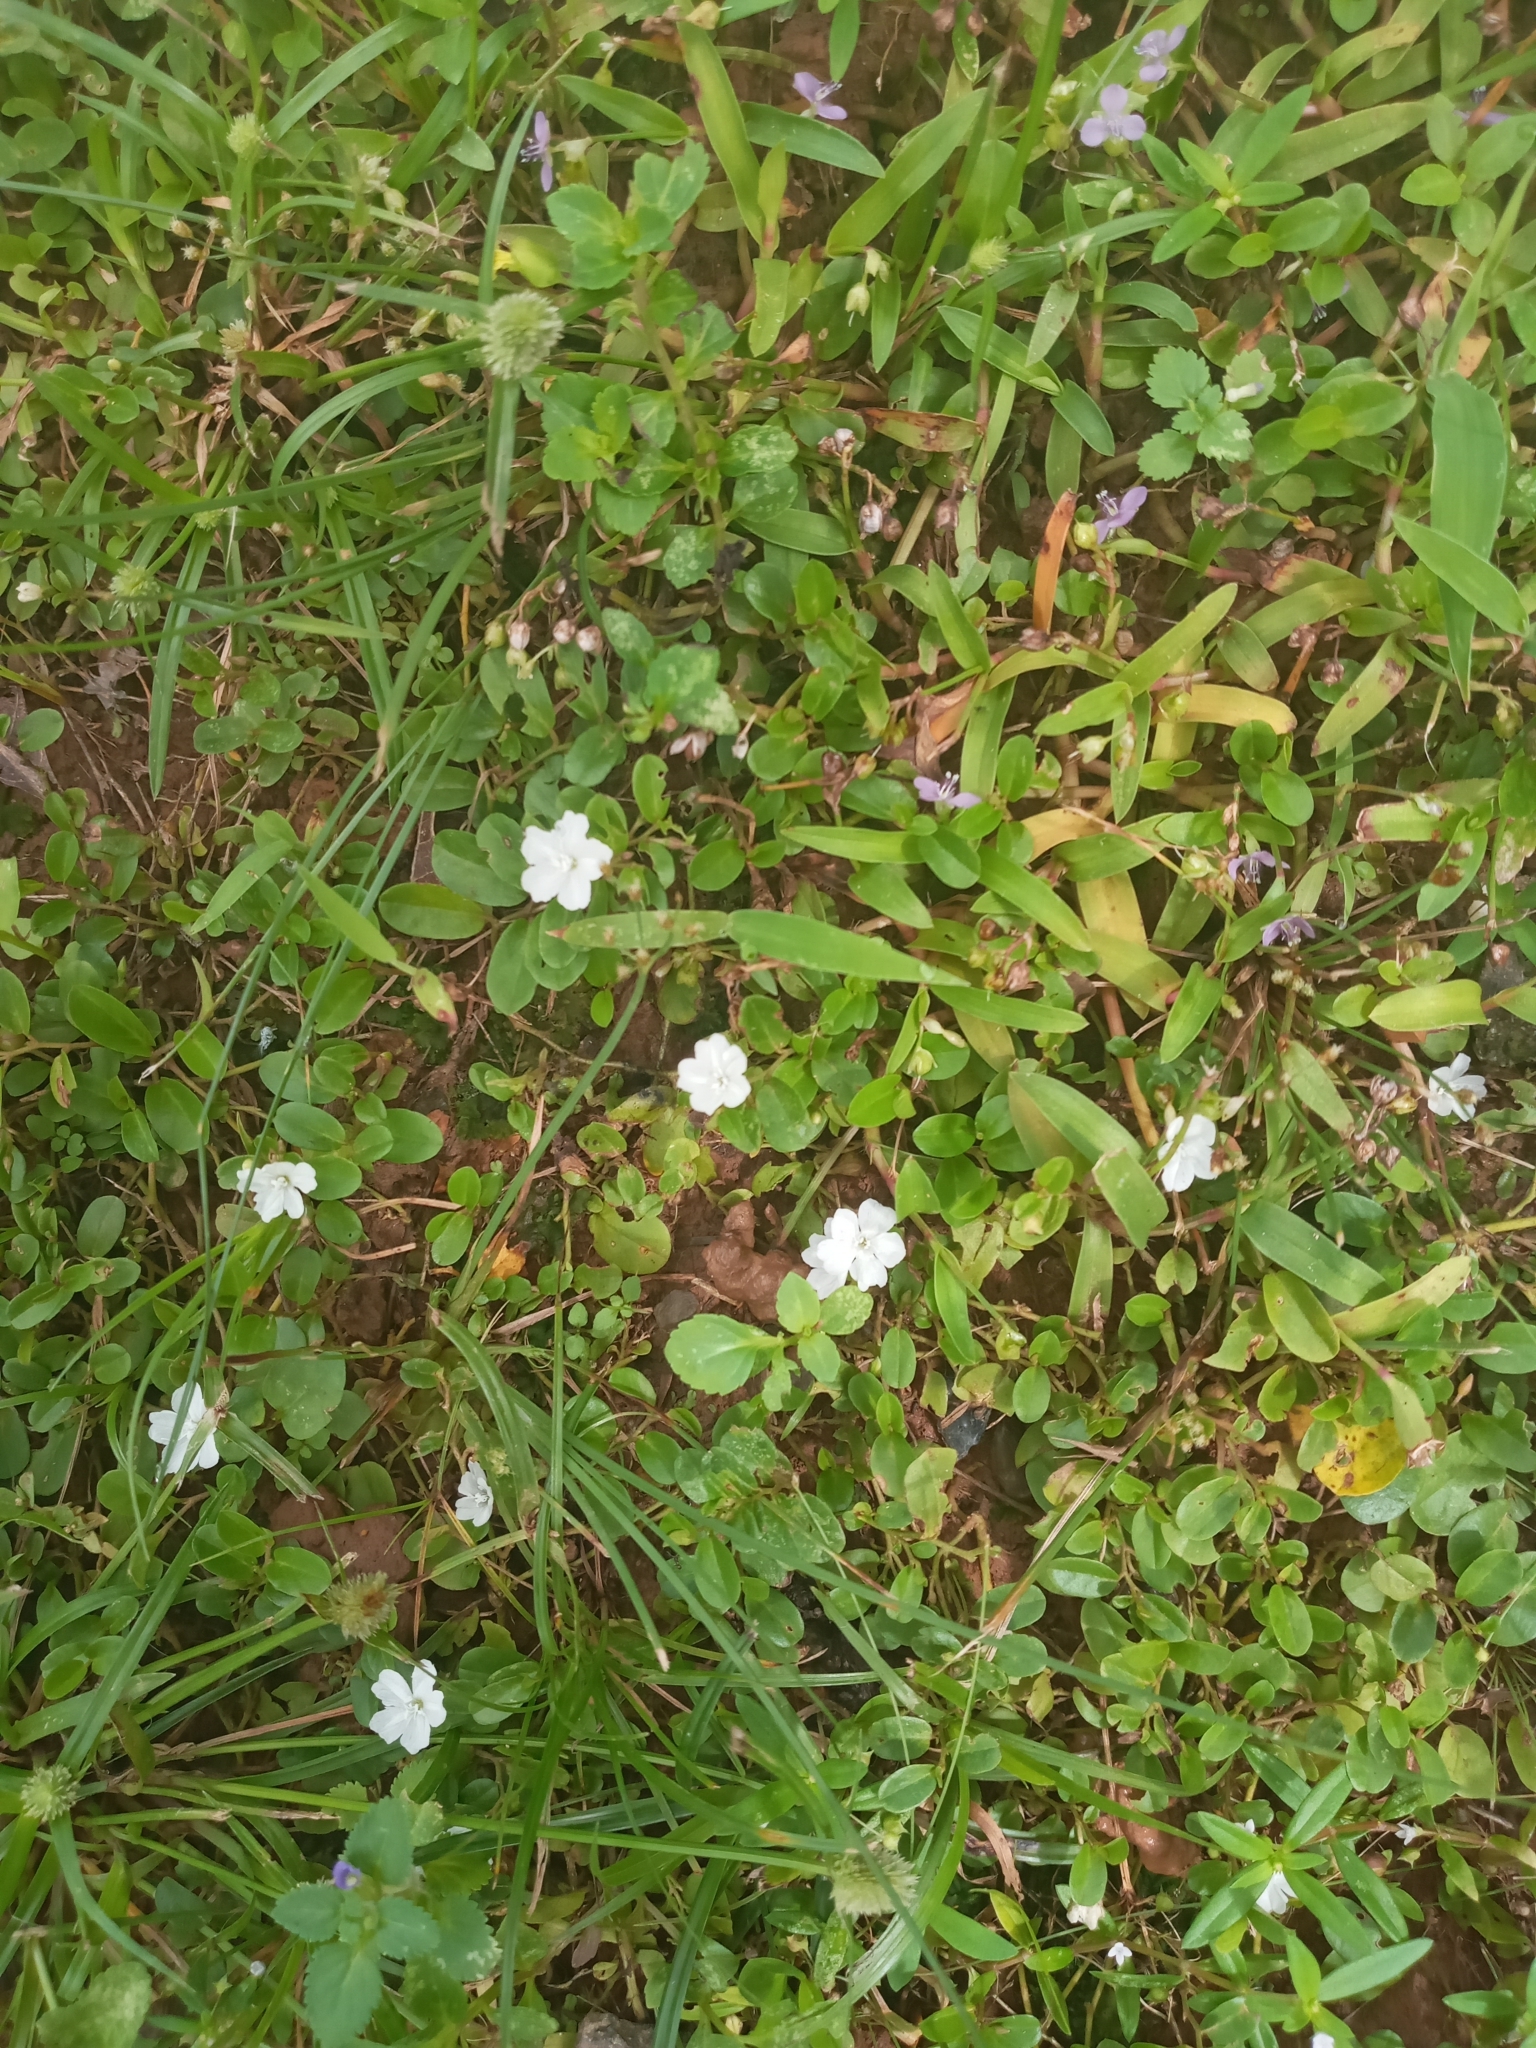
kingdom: Plantae
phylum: Tracheophyta
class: Magnoliopsida
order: Solanales
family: Convolvulaceae
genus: Evolvulus
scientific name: Evolvulus nummularius
